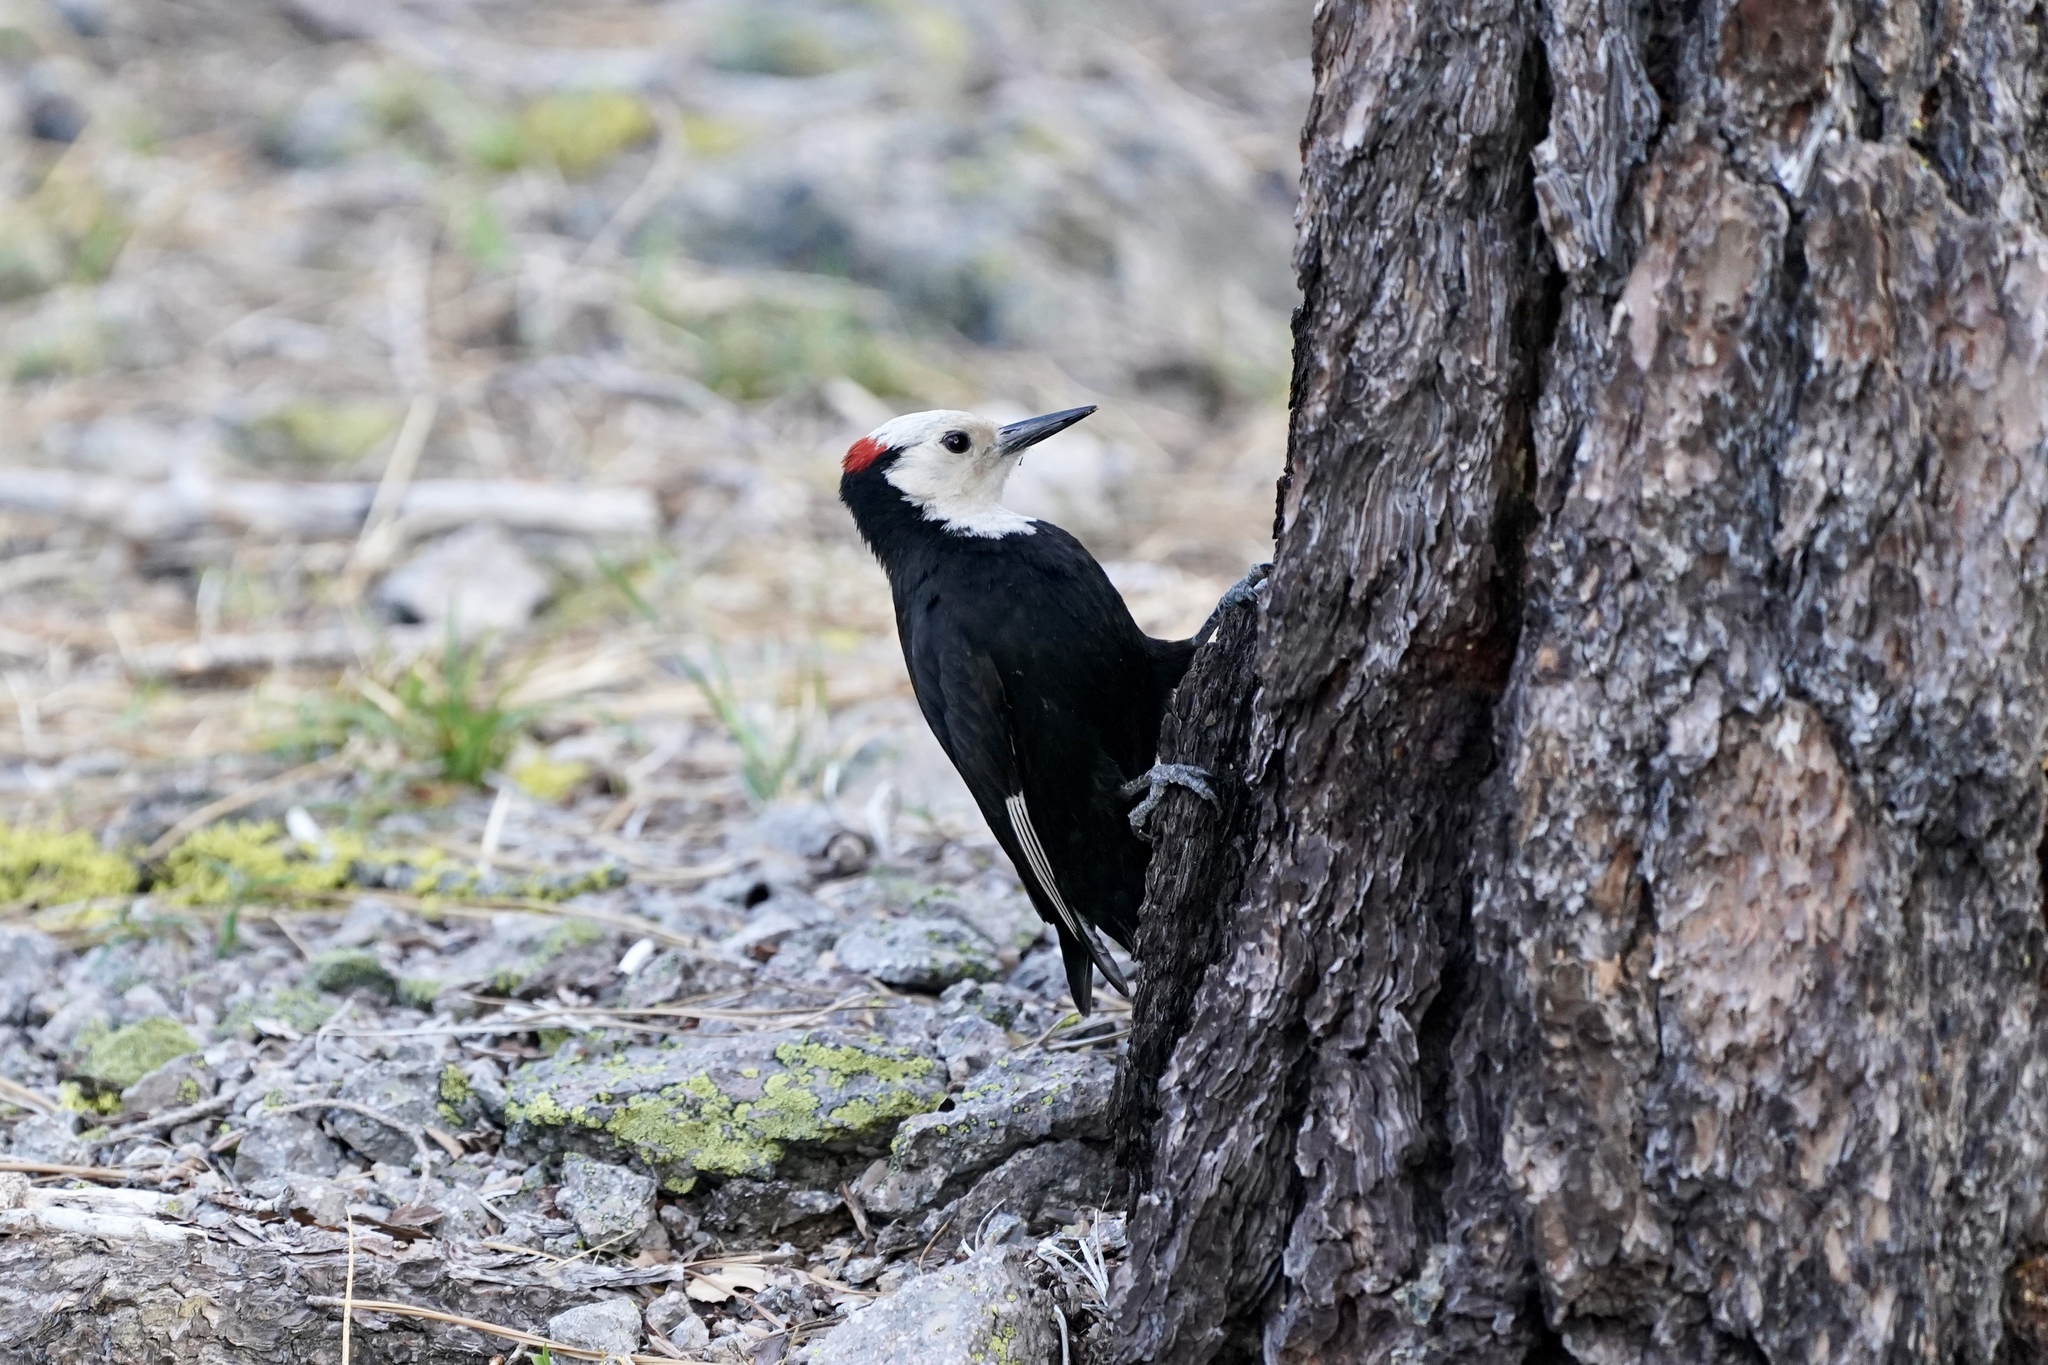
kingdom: Animalia
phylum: Chordata
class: Aves
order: Piciformes
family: Picidae
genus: Leuconotopicus
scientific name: Leuconotopicus albolarvatus
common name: White-headed woodpecker
